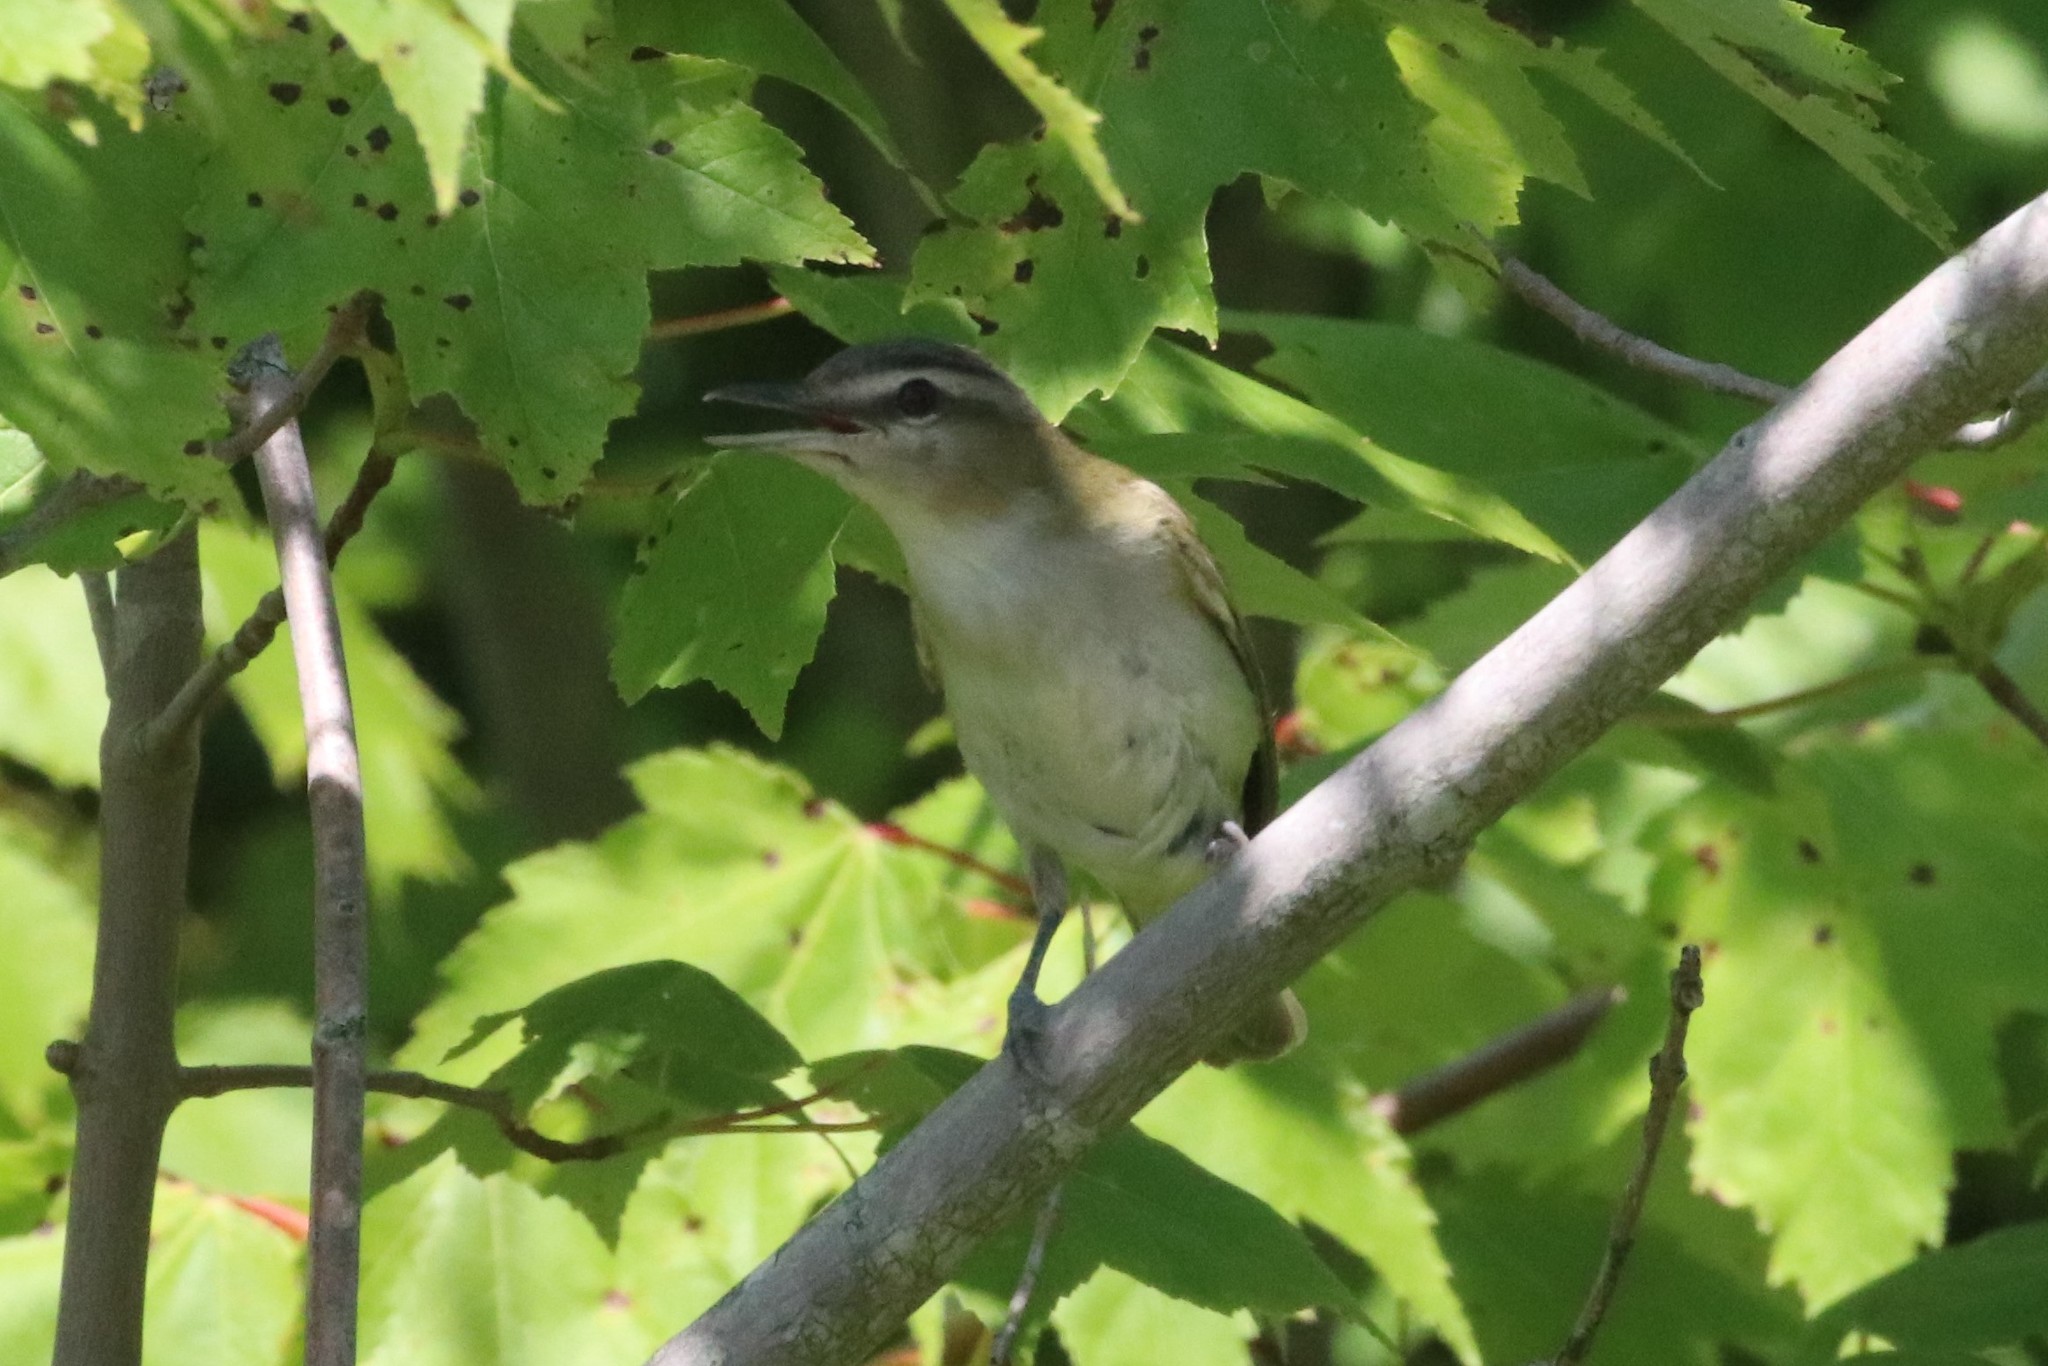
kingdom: Animalia
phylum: Chordata
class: Aves
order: Passeriformes
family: Vireonidae
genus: Vireo
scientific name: Vireo olivaceus
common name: Red-eyed vireo
